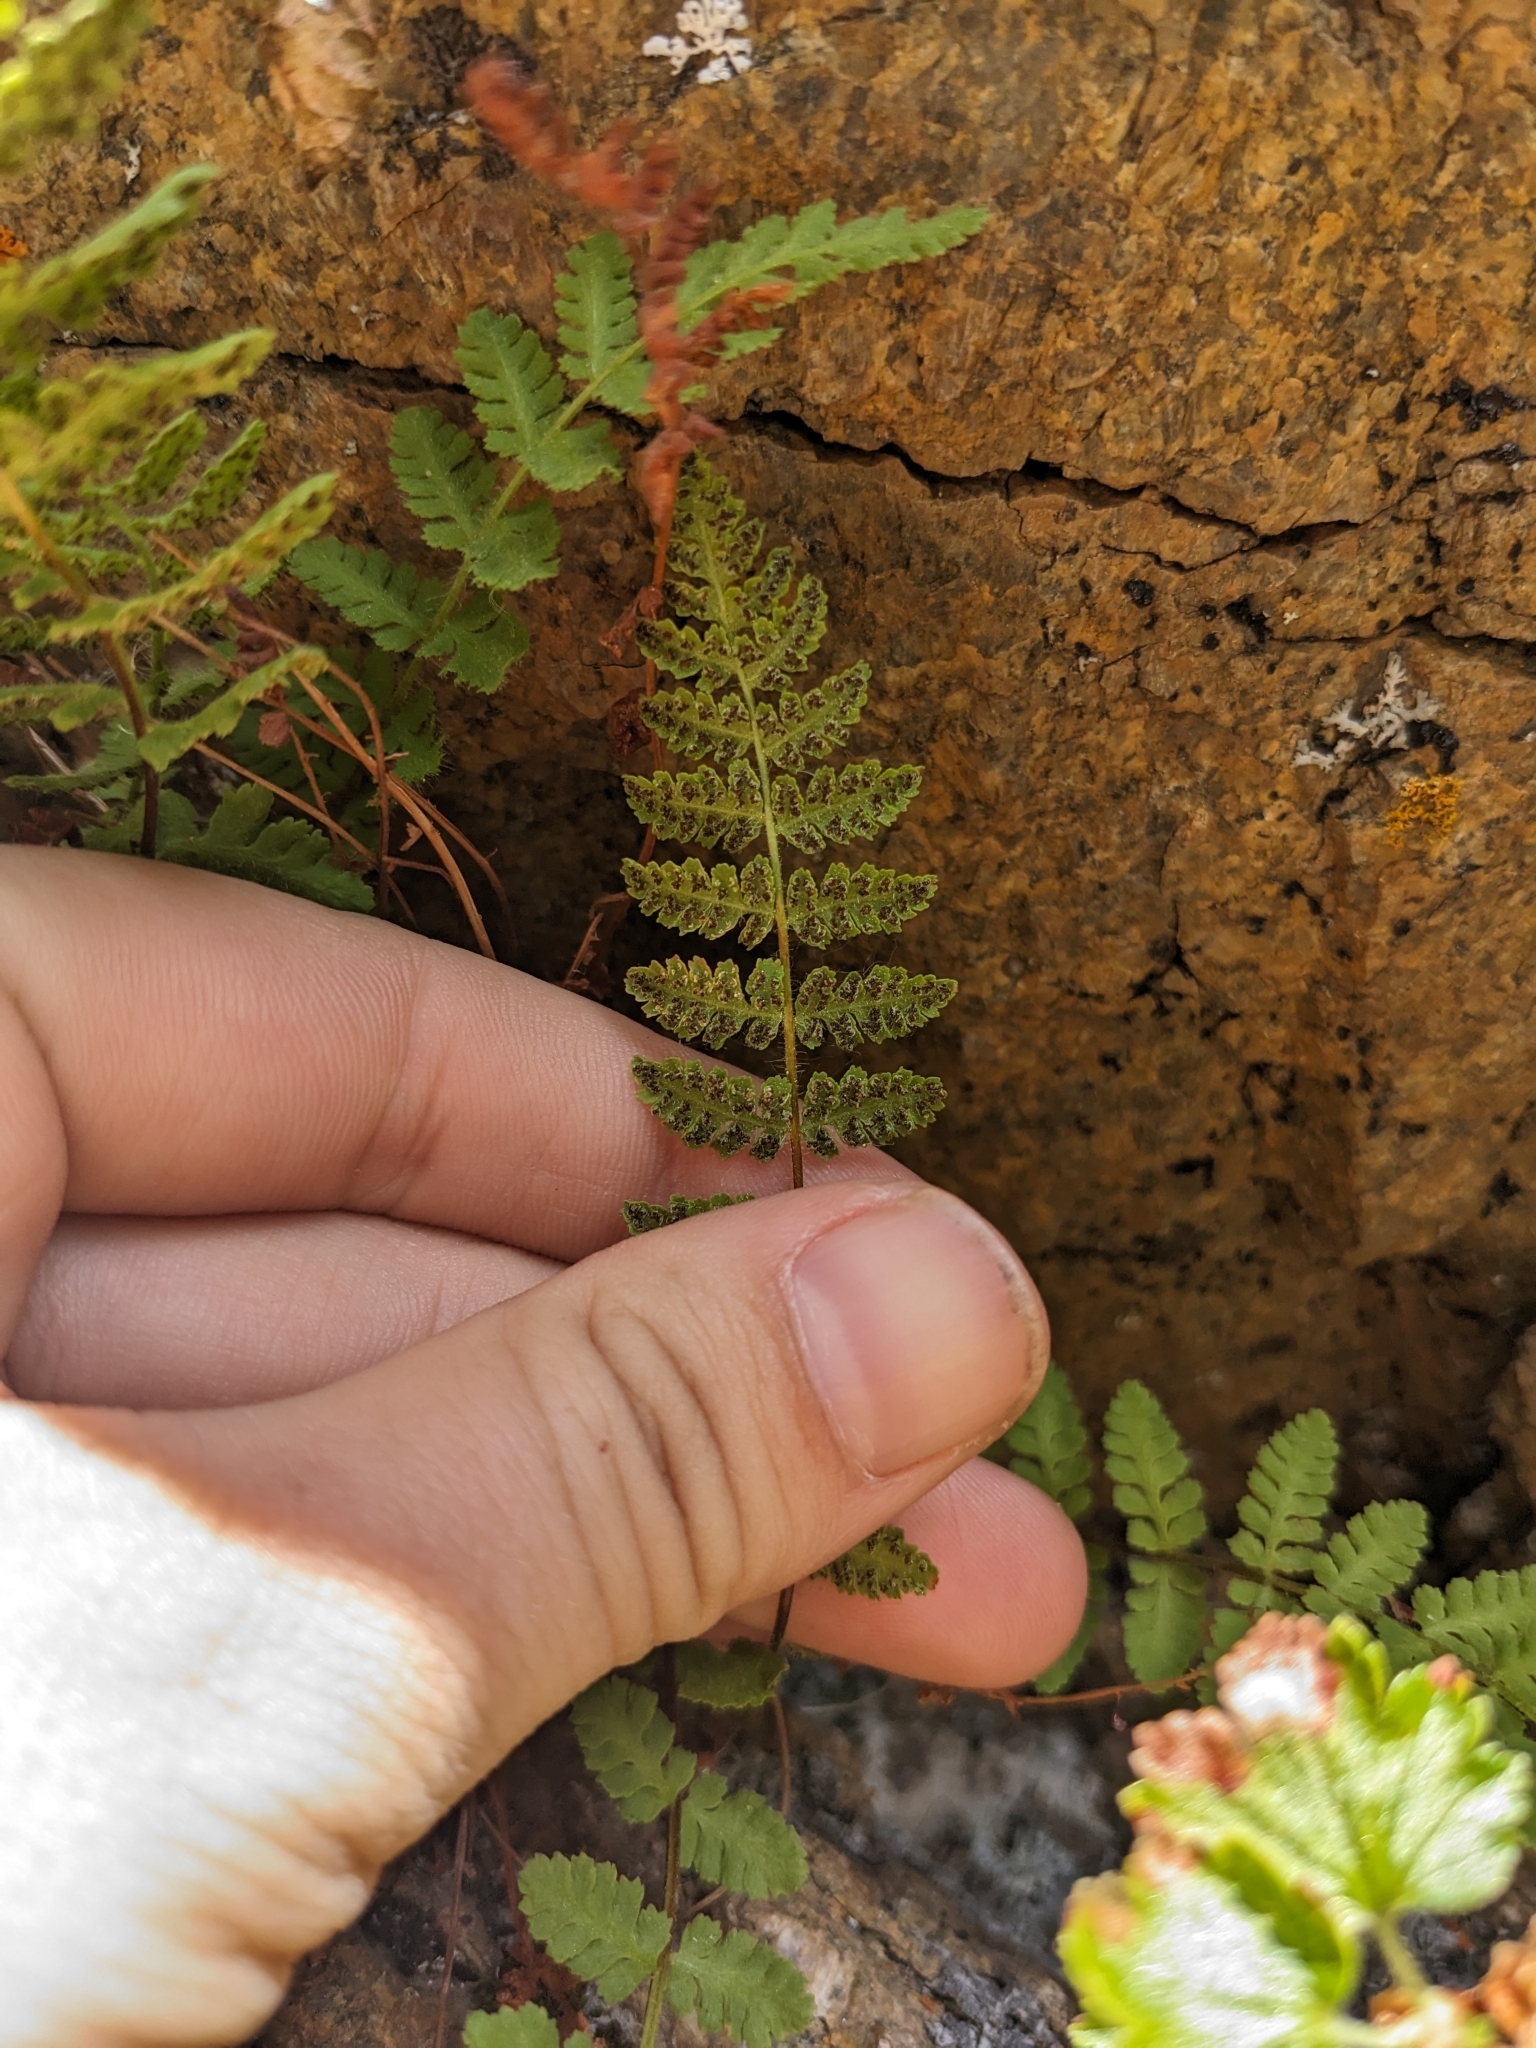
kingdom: Plantae
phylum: Tracheophyta
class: Polypodiopsida
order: Polypodiales
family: Woodsiaceae
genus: Physematium
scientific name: Physematium scopulinum
